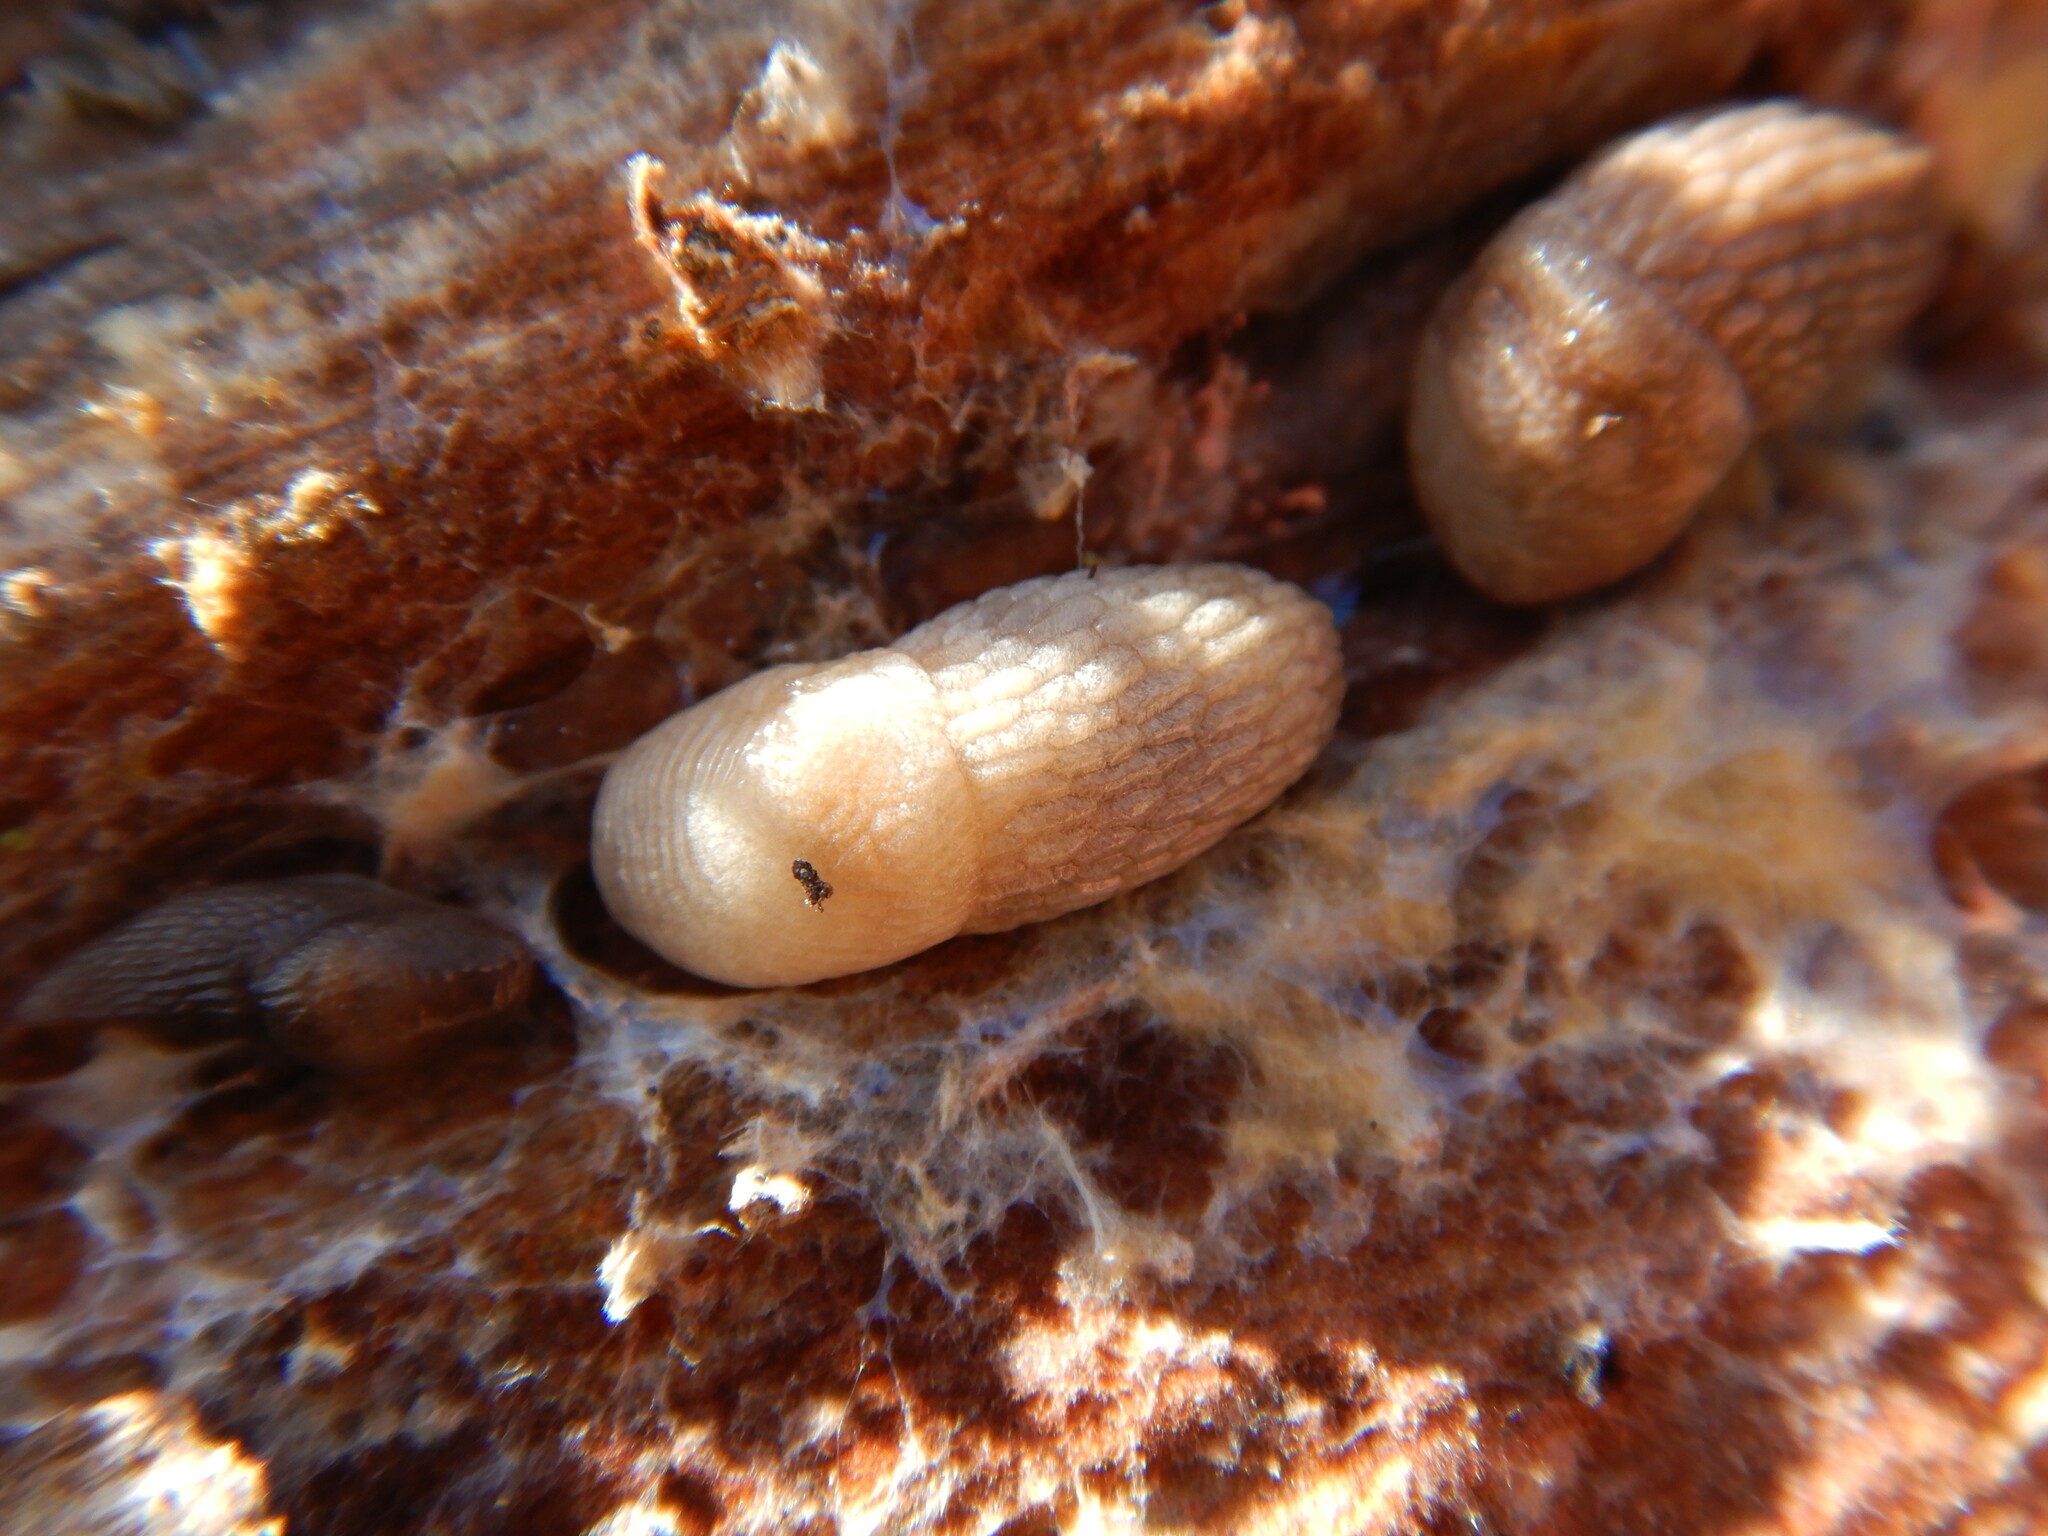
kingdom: Animalia
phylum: Mollusca
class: Gastropoda
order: Stylommatophora
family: Agriolimacidae
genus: Deroceras
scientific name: Deroceras reticulatum
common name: Gray field slug
